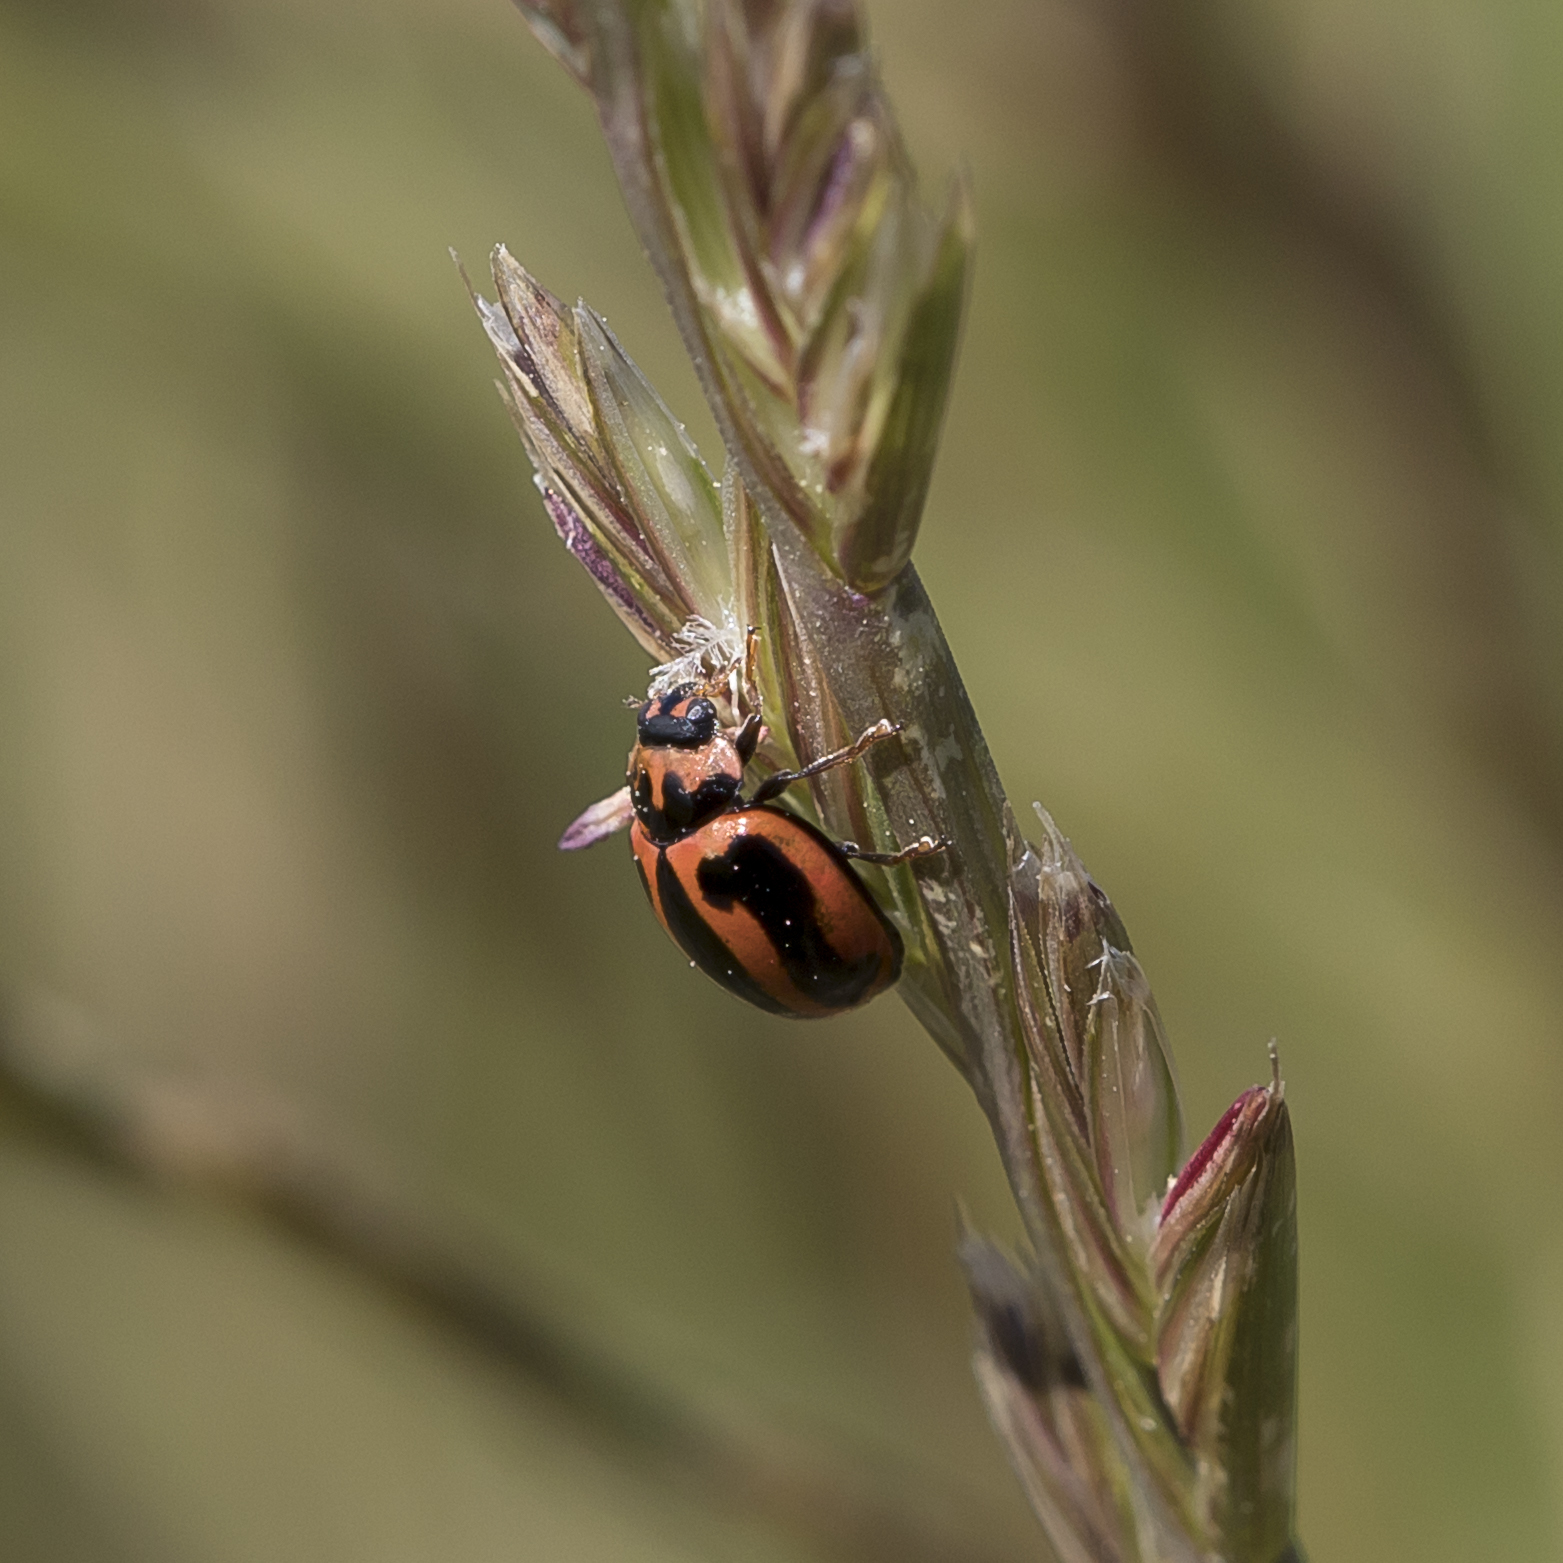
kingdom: Animalia
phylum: Arthropoda
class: Insecta
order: Coleoptera
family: Coccinellidae
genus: Micraspis
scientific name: Micraspis frenata
